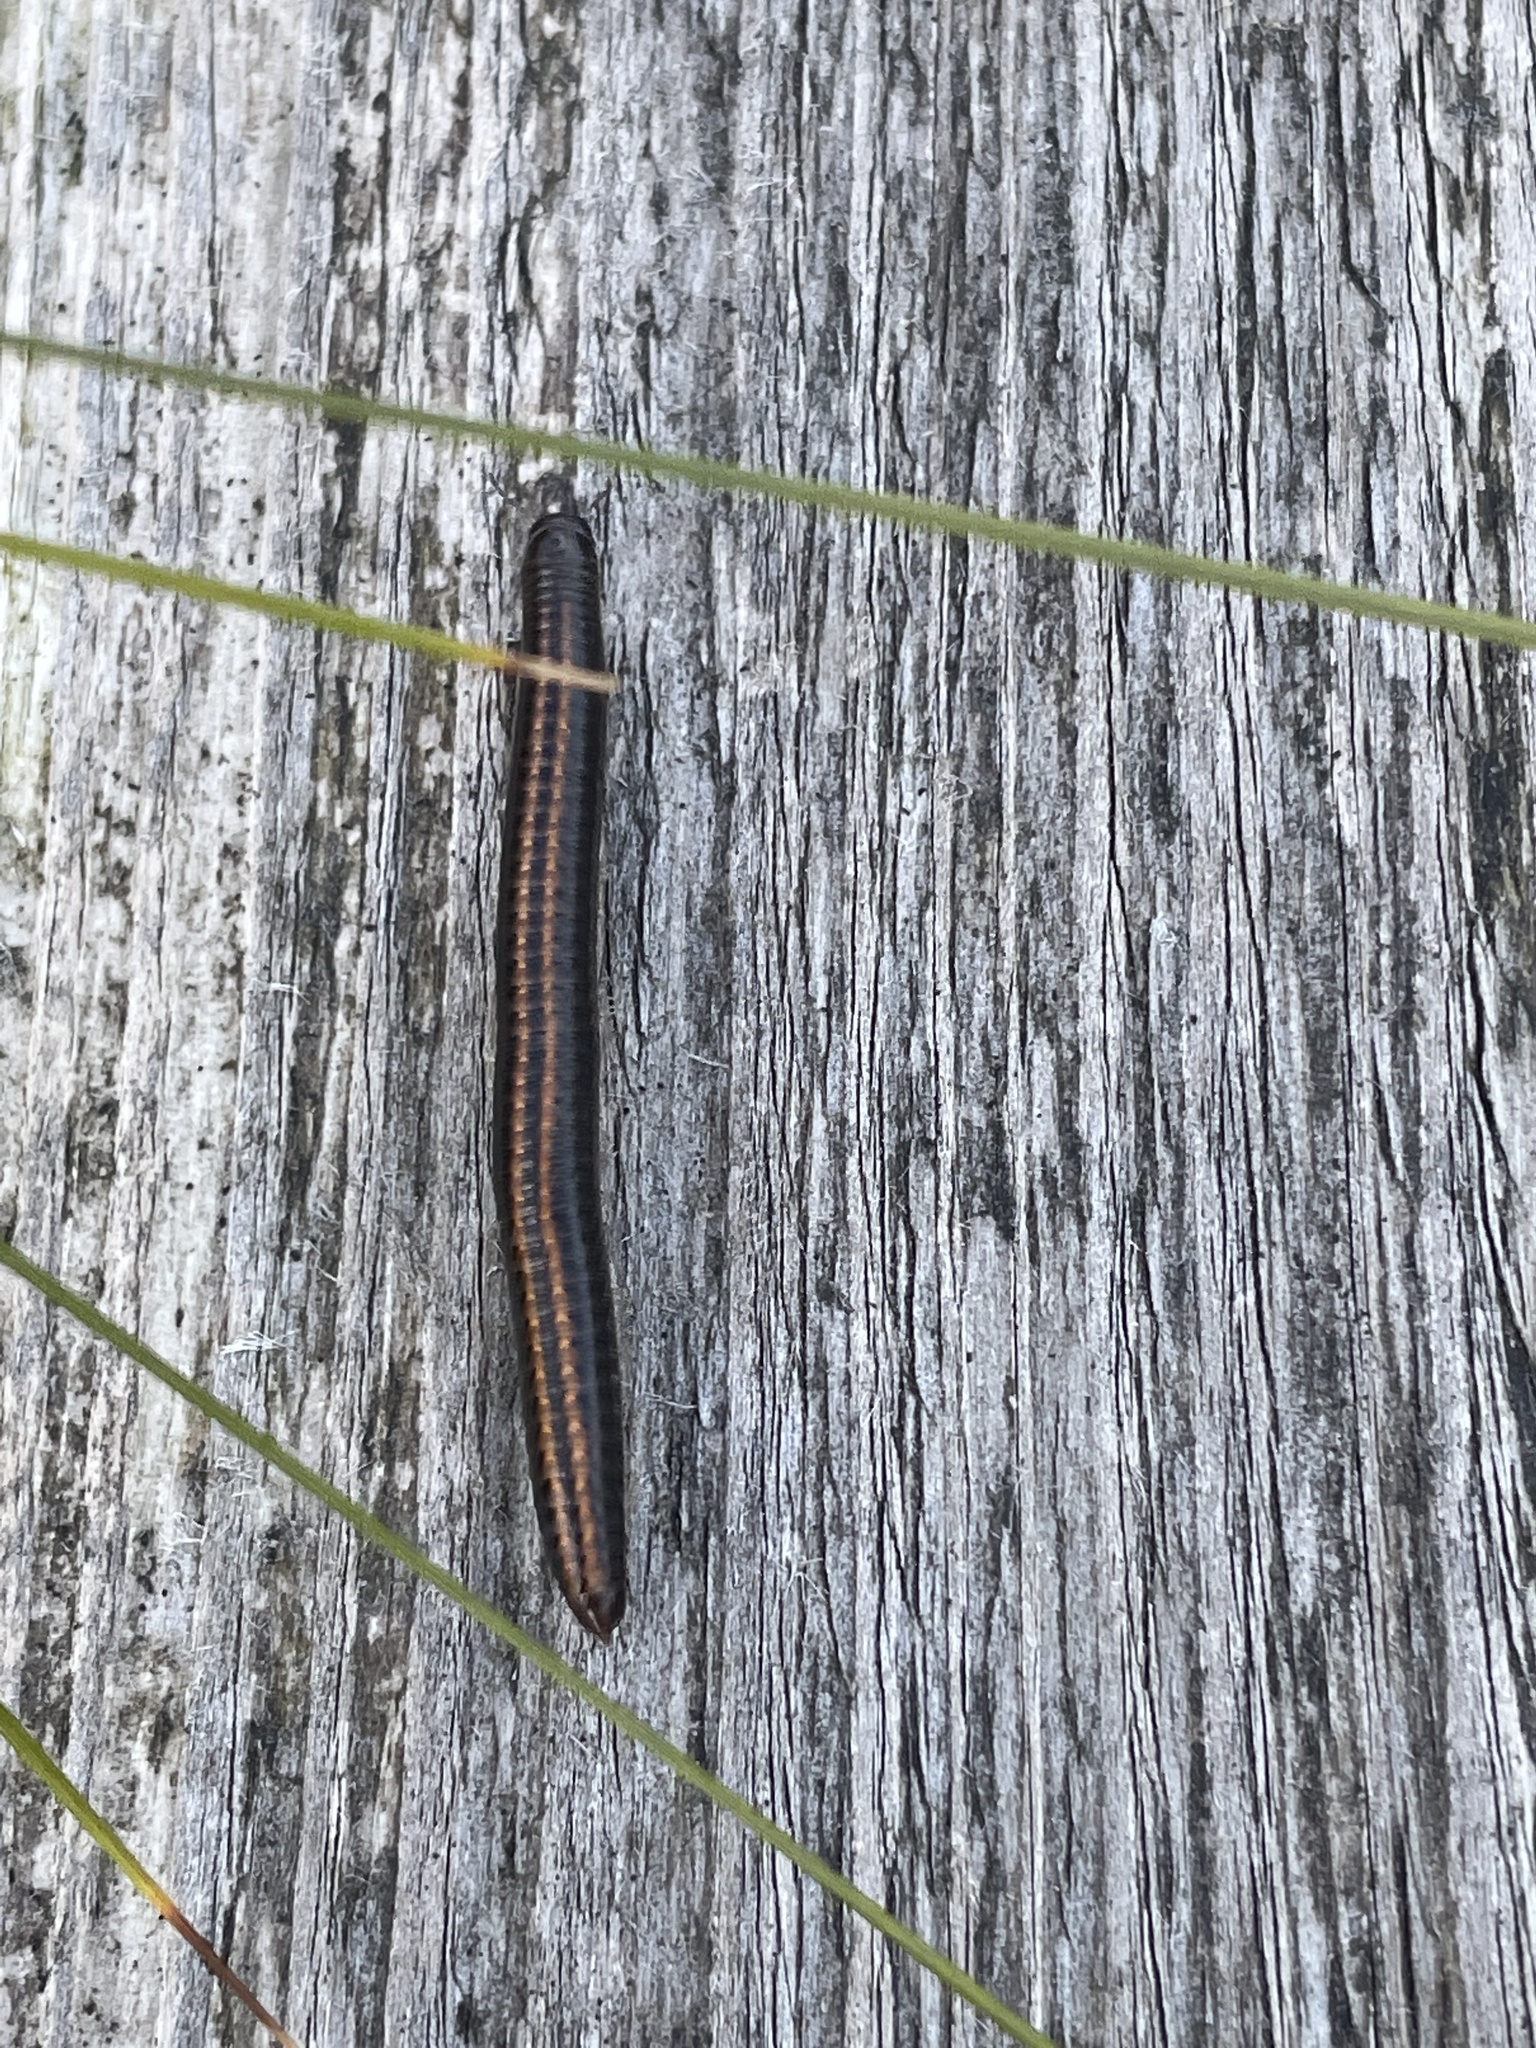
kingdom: Animalia
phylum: Arthropoda
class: Diplopoda
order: Julida
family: Julidae
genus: Ommatoiulus
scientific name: Ommatoiulus sabulosus
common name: Striped millipede
